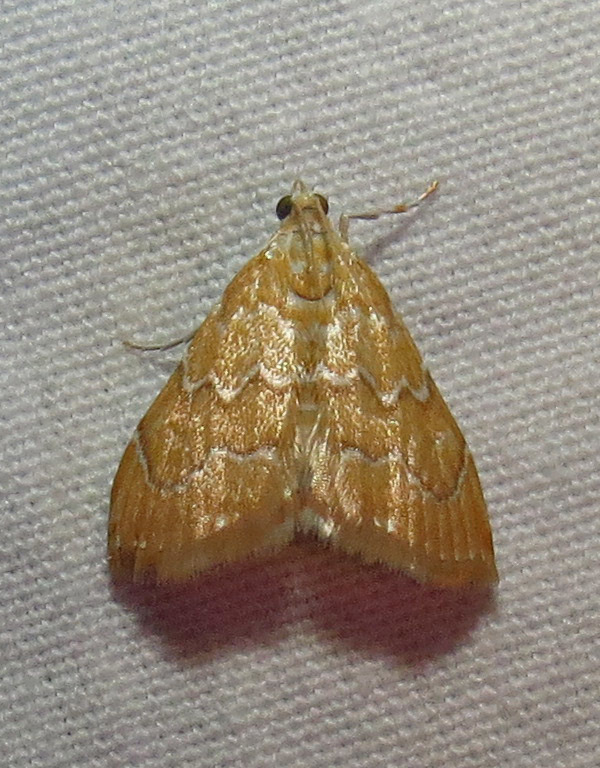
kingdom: Animalia
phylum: Arthropoda
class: Insecta
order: Lepidoptera
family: Crambidae
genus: Glaphyria
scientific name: Glaphyria sesquistrialis
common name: White-roped glaphyria
